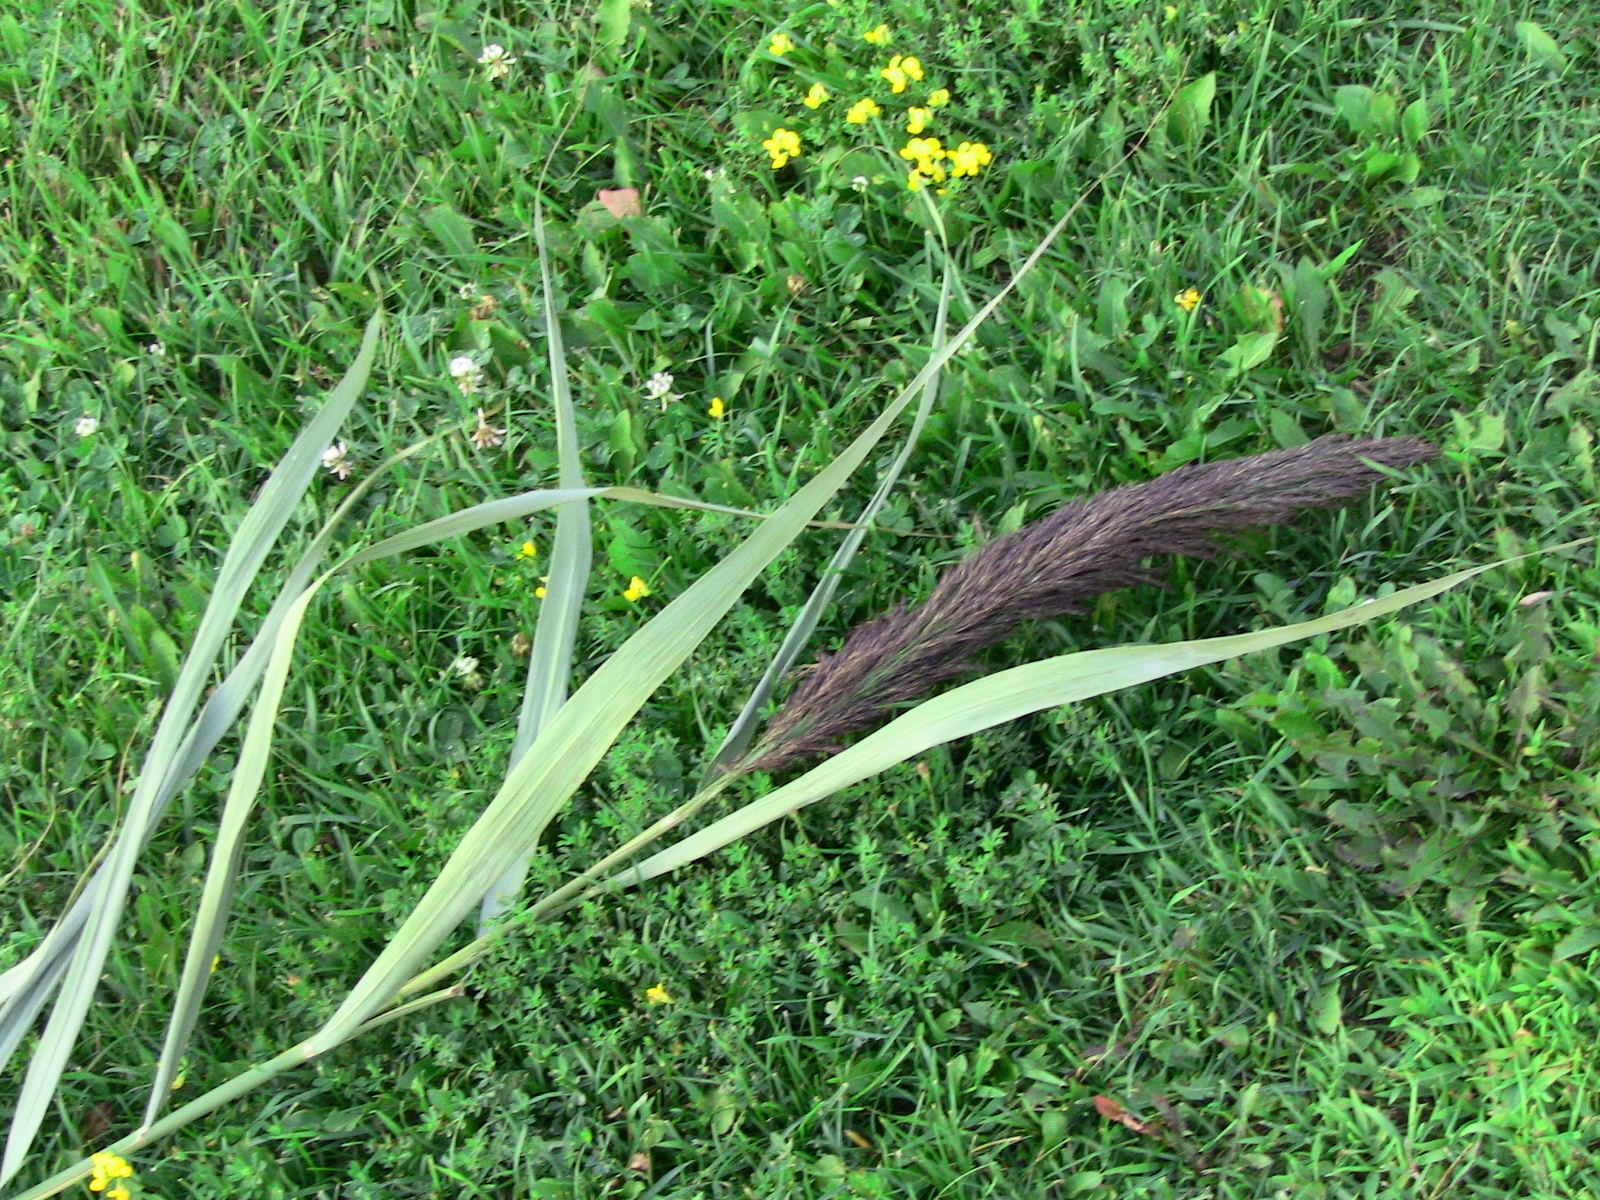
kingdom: Plantae
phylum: Tracheophyta
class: Liliopsida
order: Poales
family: Poaceae
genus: Phragmites
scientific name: Phragmites australis
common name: Common reed
